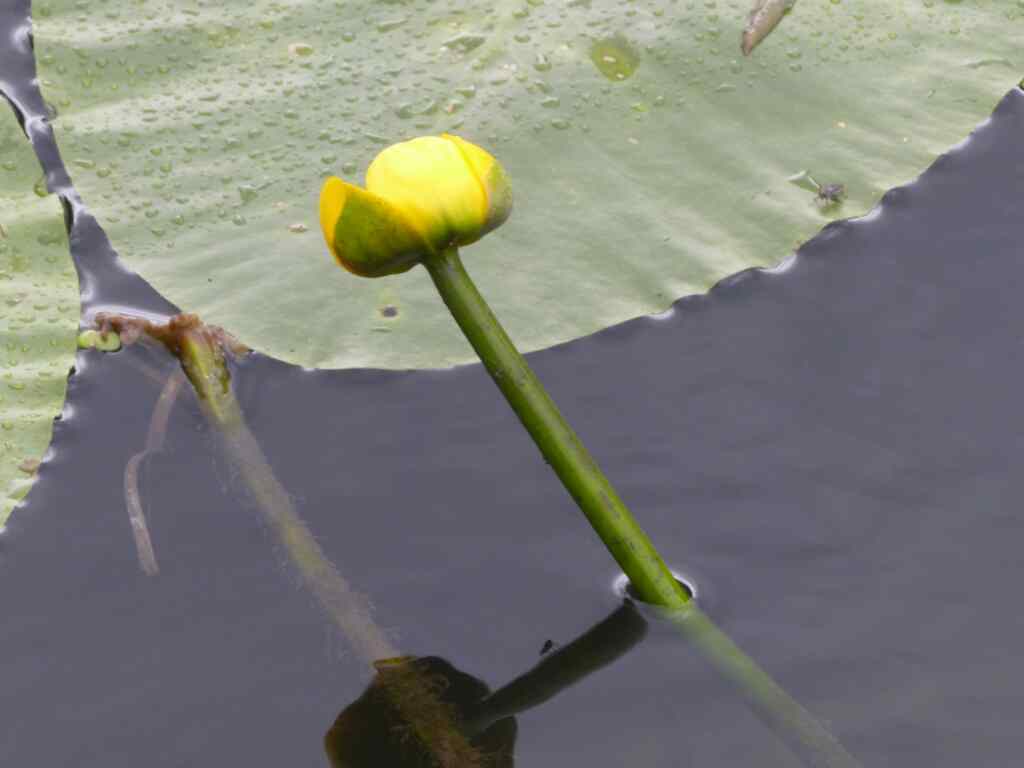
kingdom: Plantae
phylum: Tracheophyta
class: Magnoliopsida
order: Nymphaeales
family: Nymphaeaceae
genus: Nuphar
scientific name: Nuphar lutea
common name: Yellow water-lily
